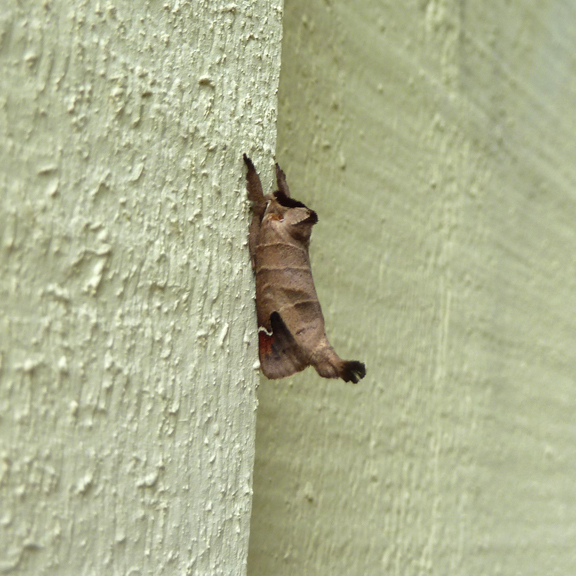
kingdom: Animalia
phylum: Arthropoda
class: Insecta
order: Lepidoptera
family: Notodontidae
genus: Clostera
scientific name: Clostera albosigma
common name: Sigmoid prominent
